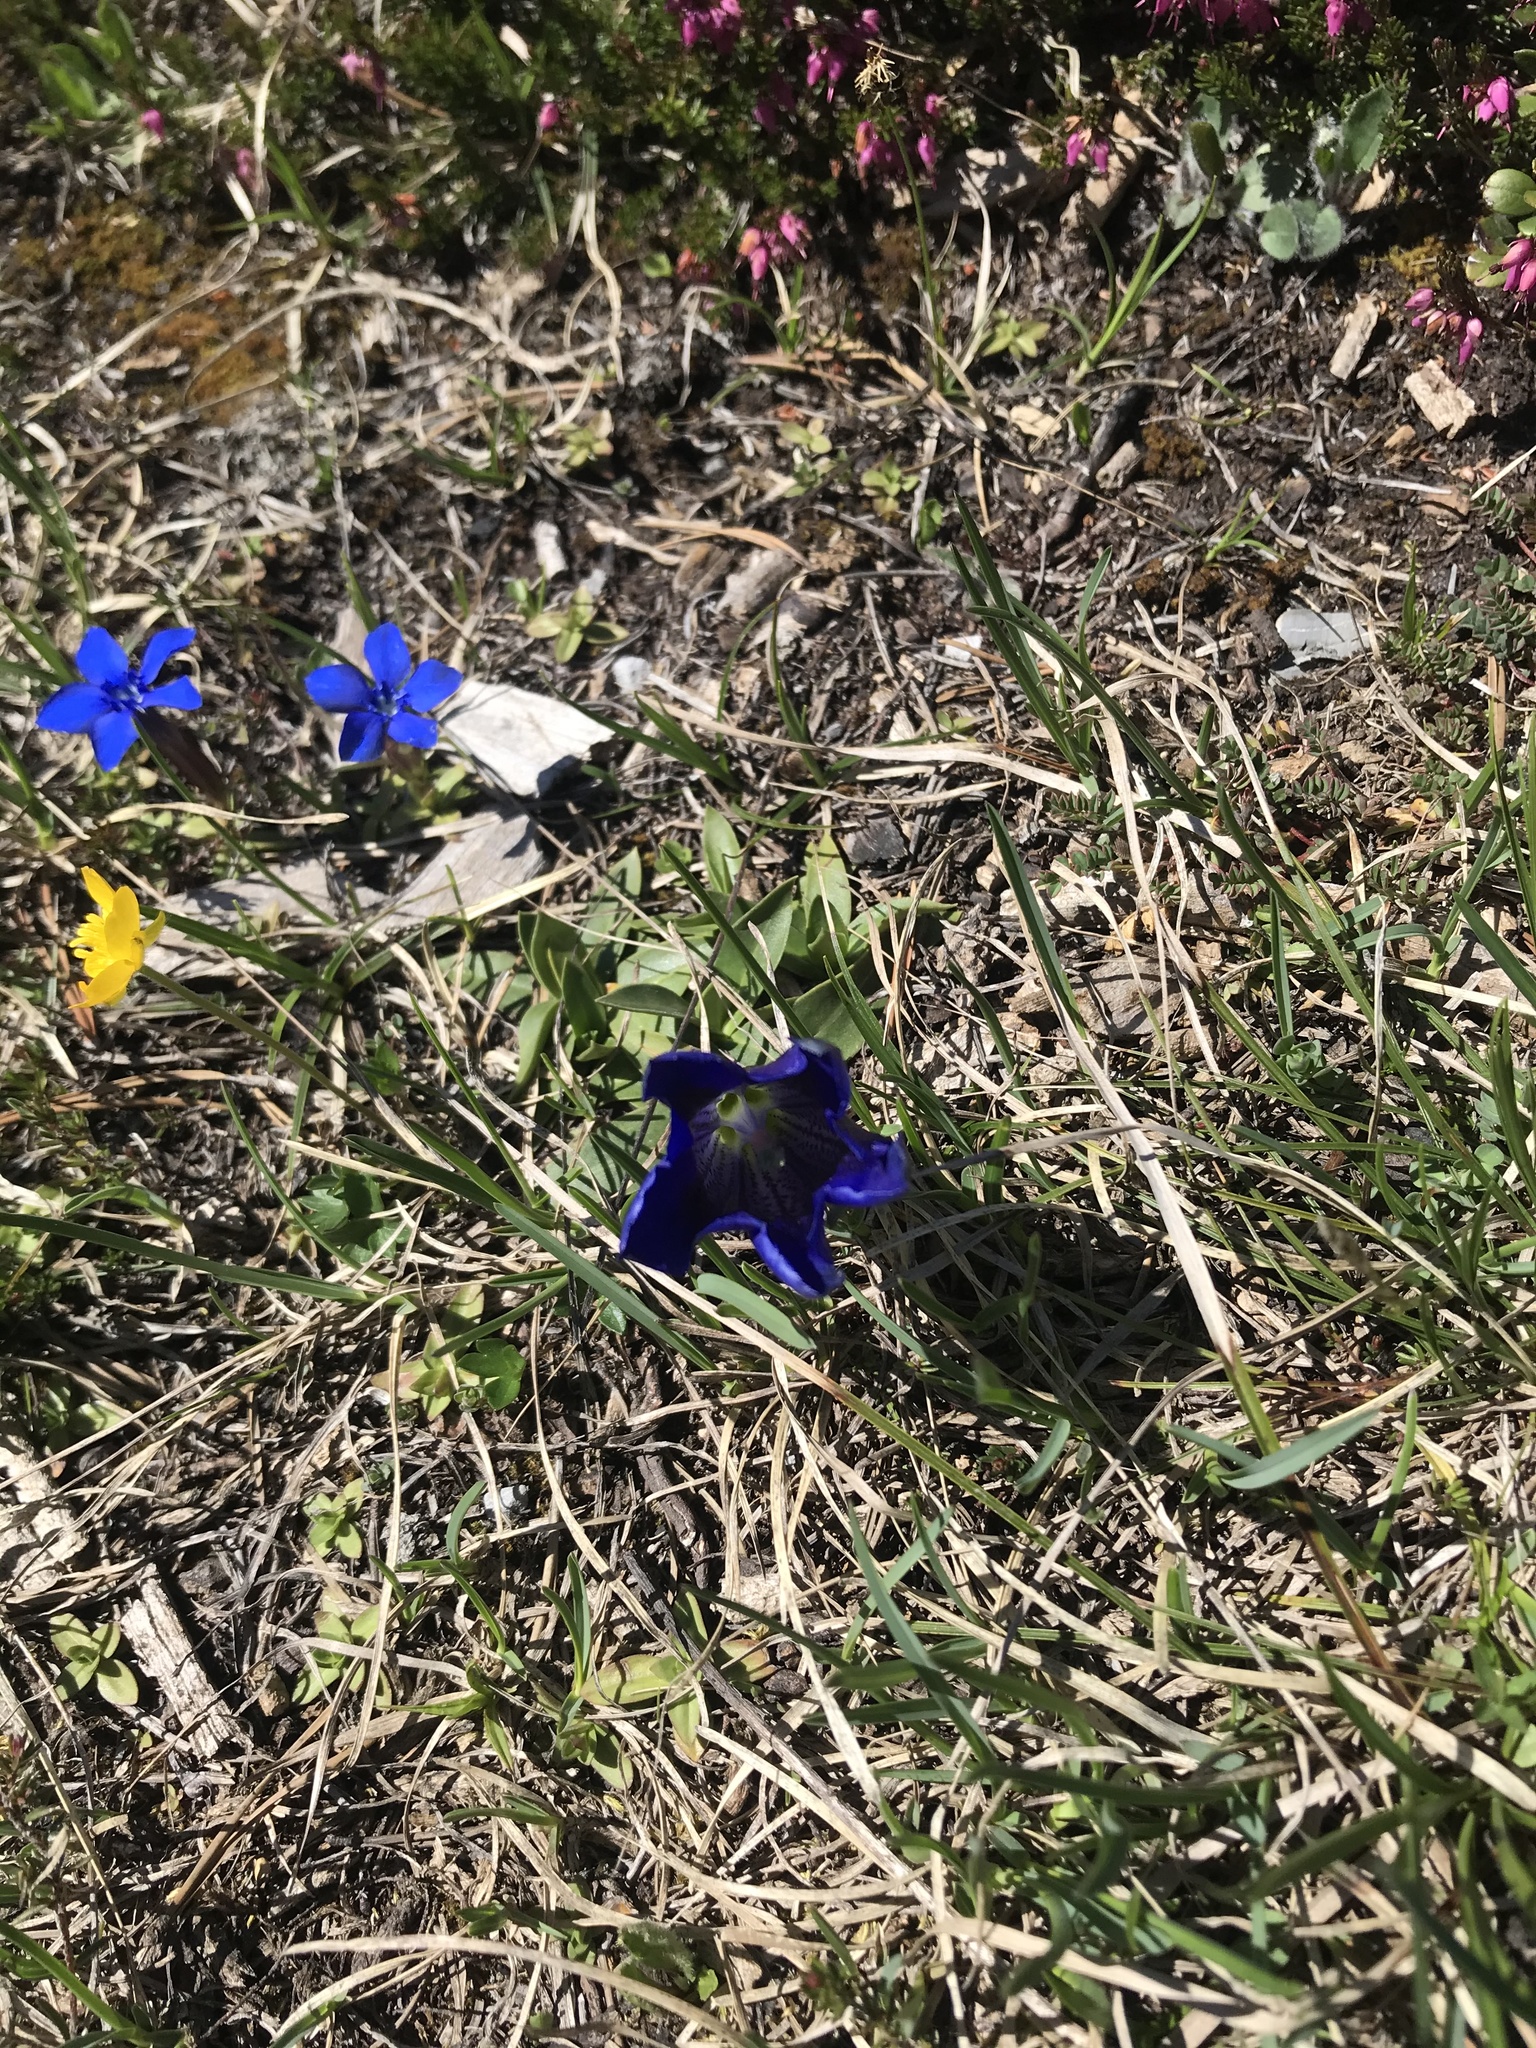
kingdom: Plantae
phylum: Tracheophyta
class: Magnoliopsida
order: Gentianales
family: Gentianaceae
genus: Gentiana
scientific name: Gentiana clusii
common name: Trumpet gentian
